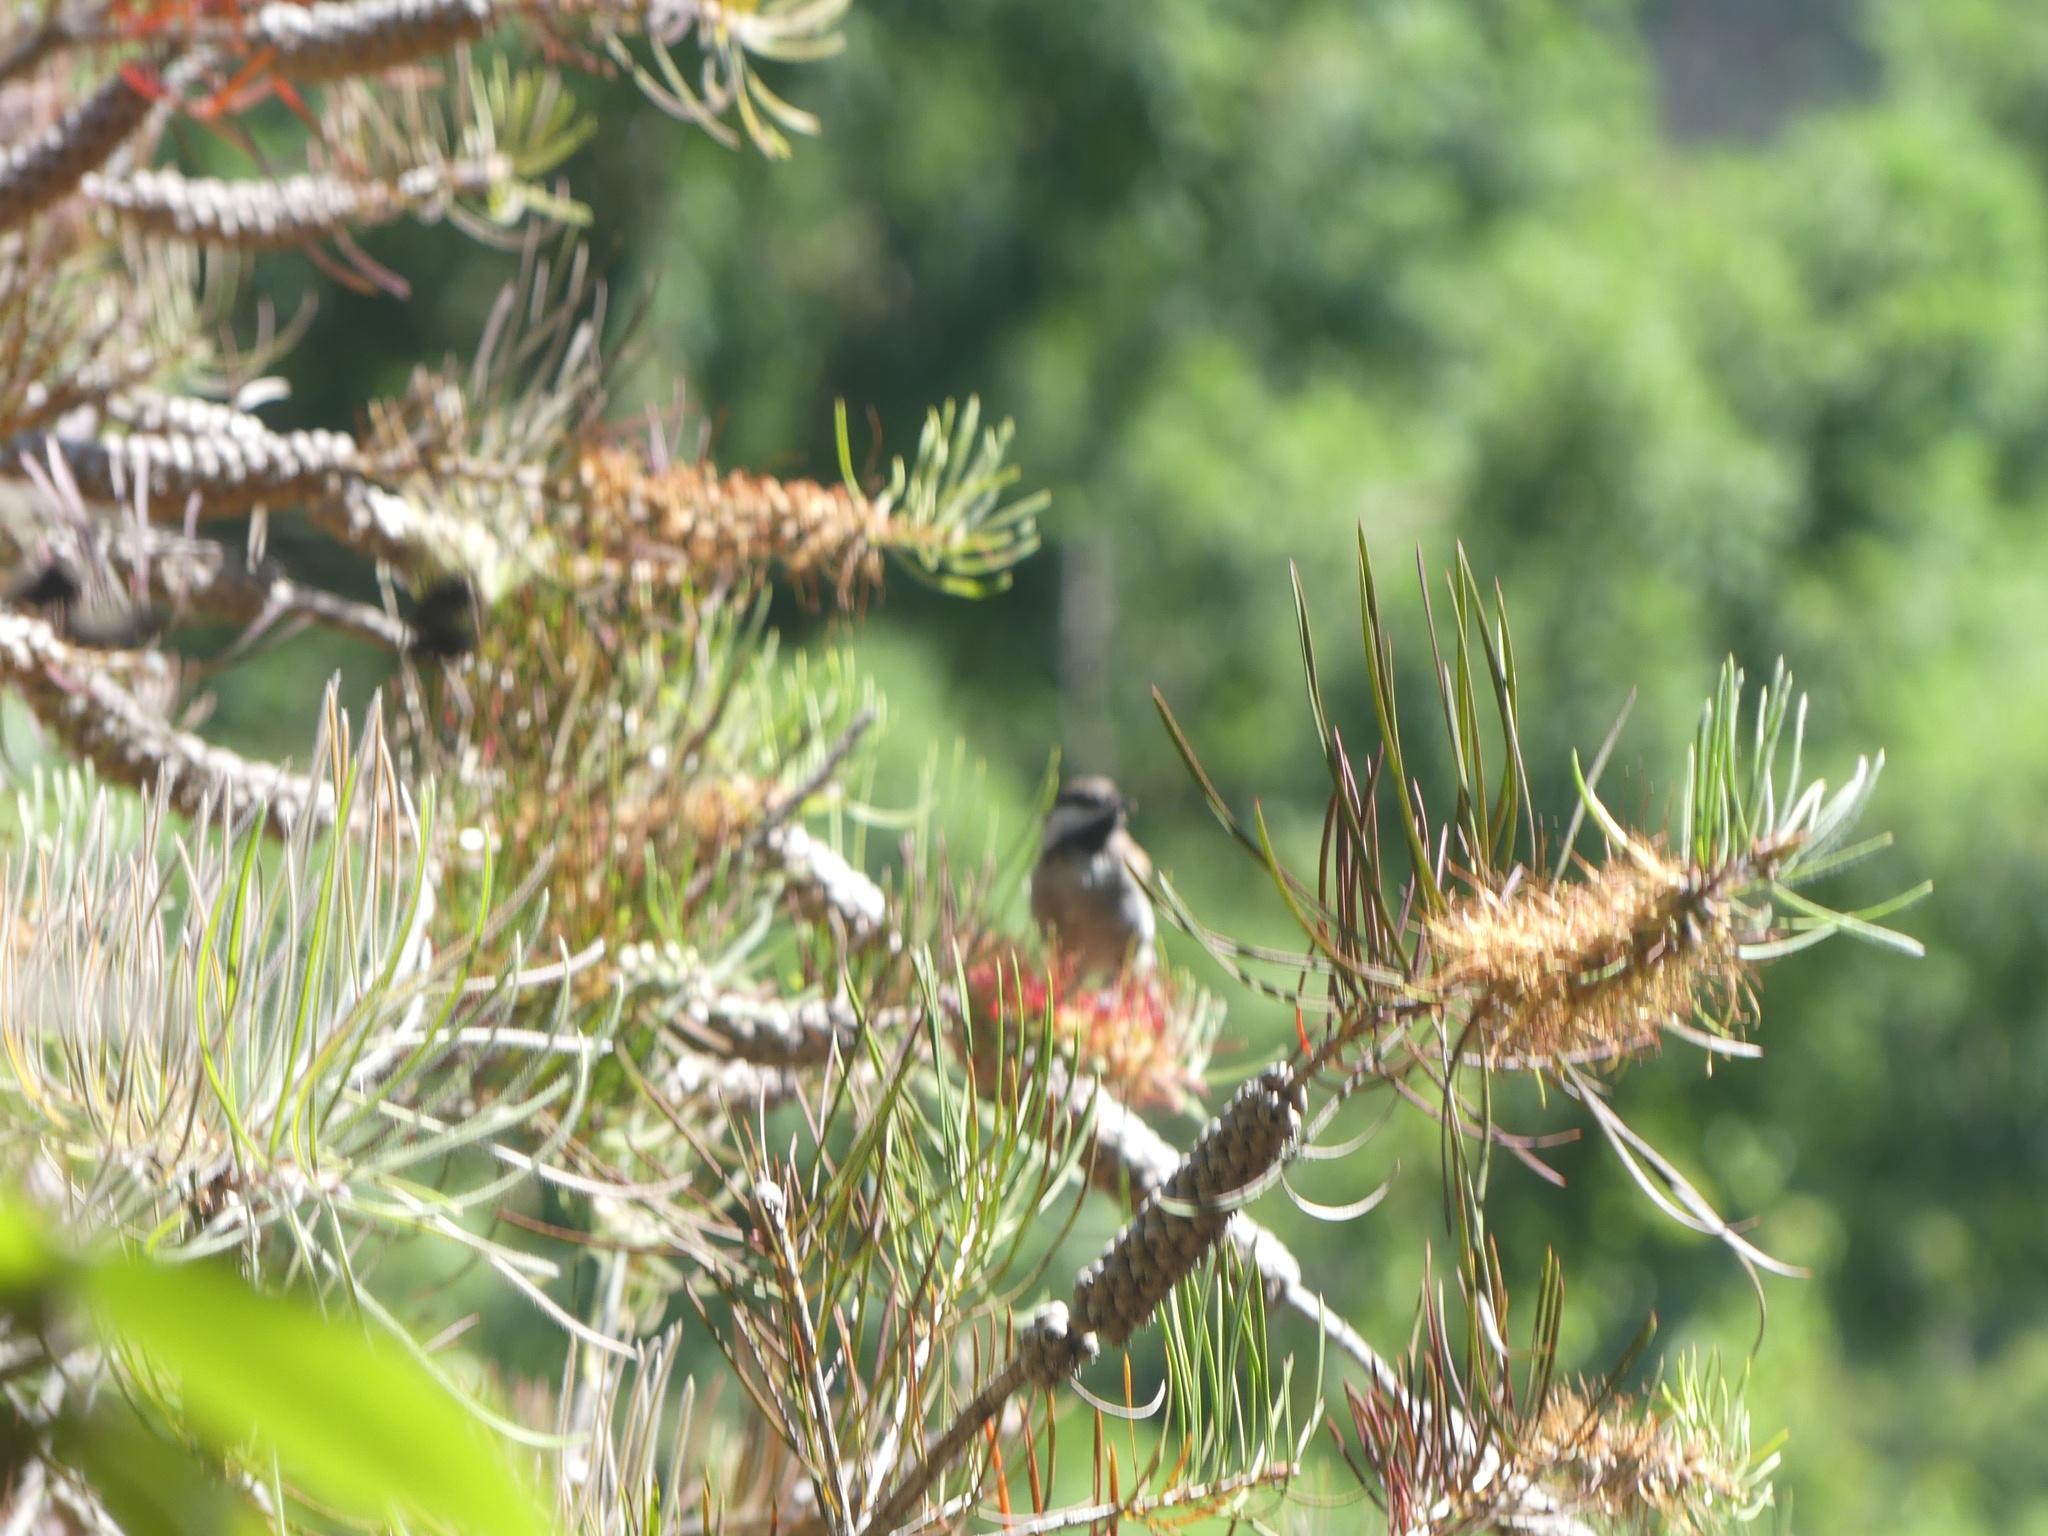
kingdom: Animalia
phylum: Chordata
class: Aves
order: Passeriformes
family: Paridae
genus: Poecile
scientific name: Poecile rufescens
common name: Chestnut-backed chickadee
